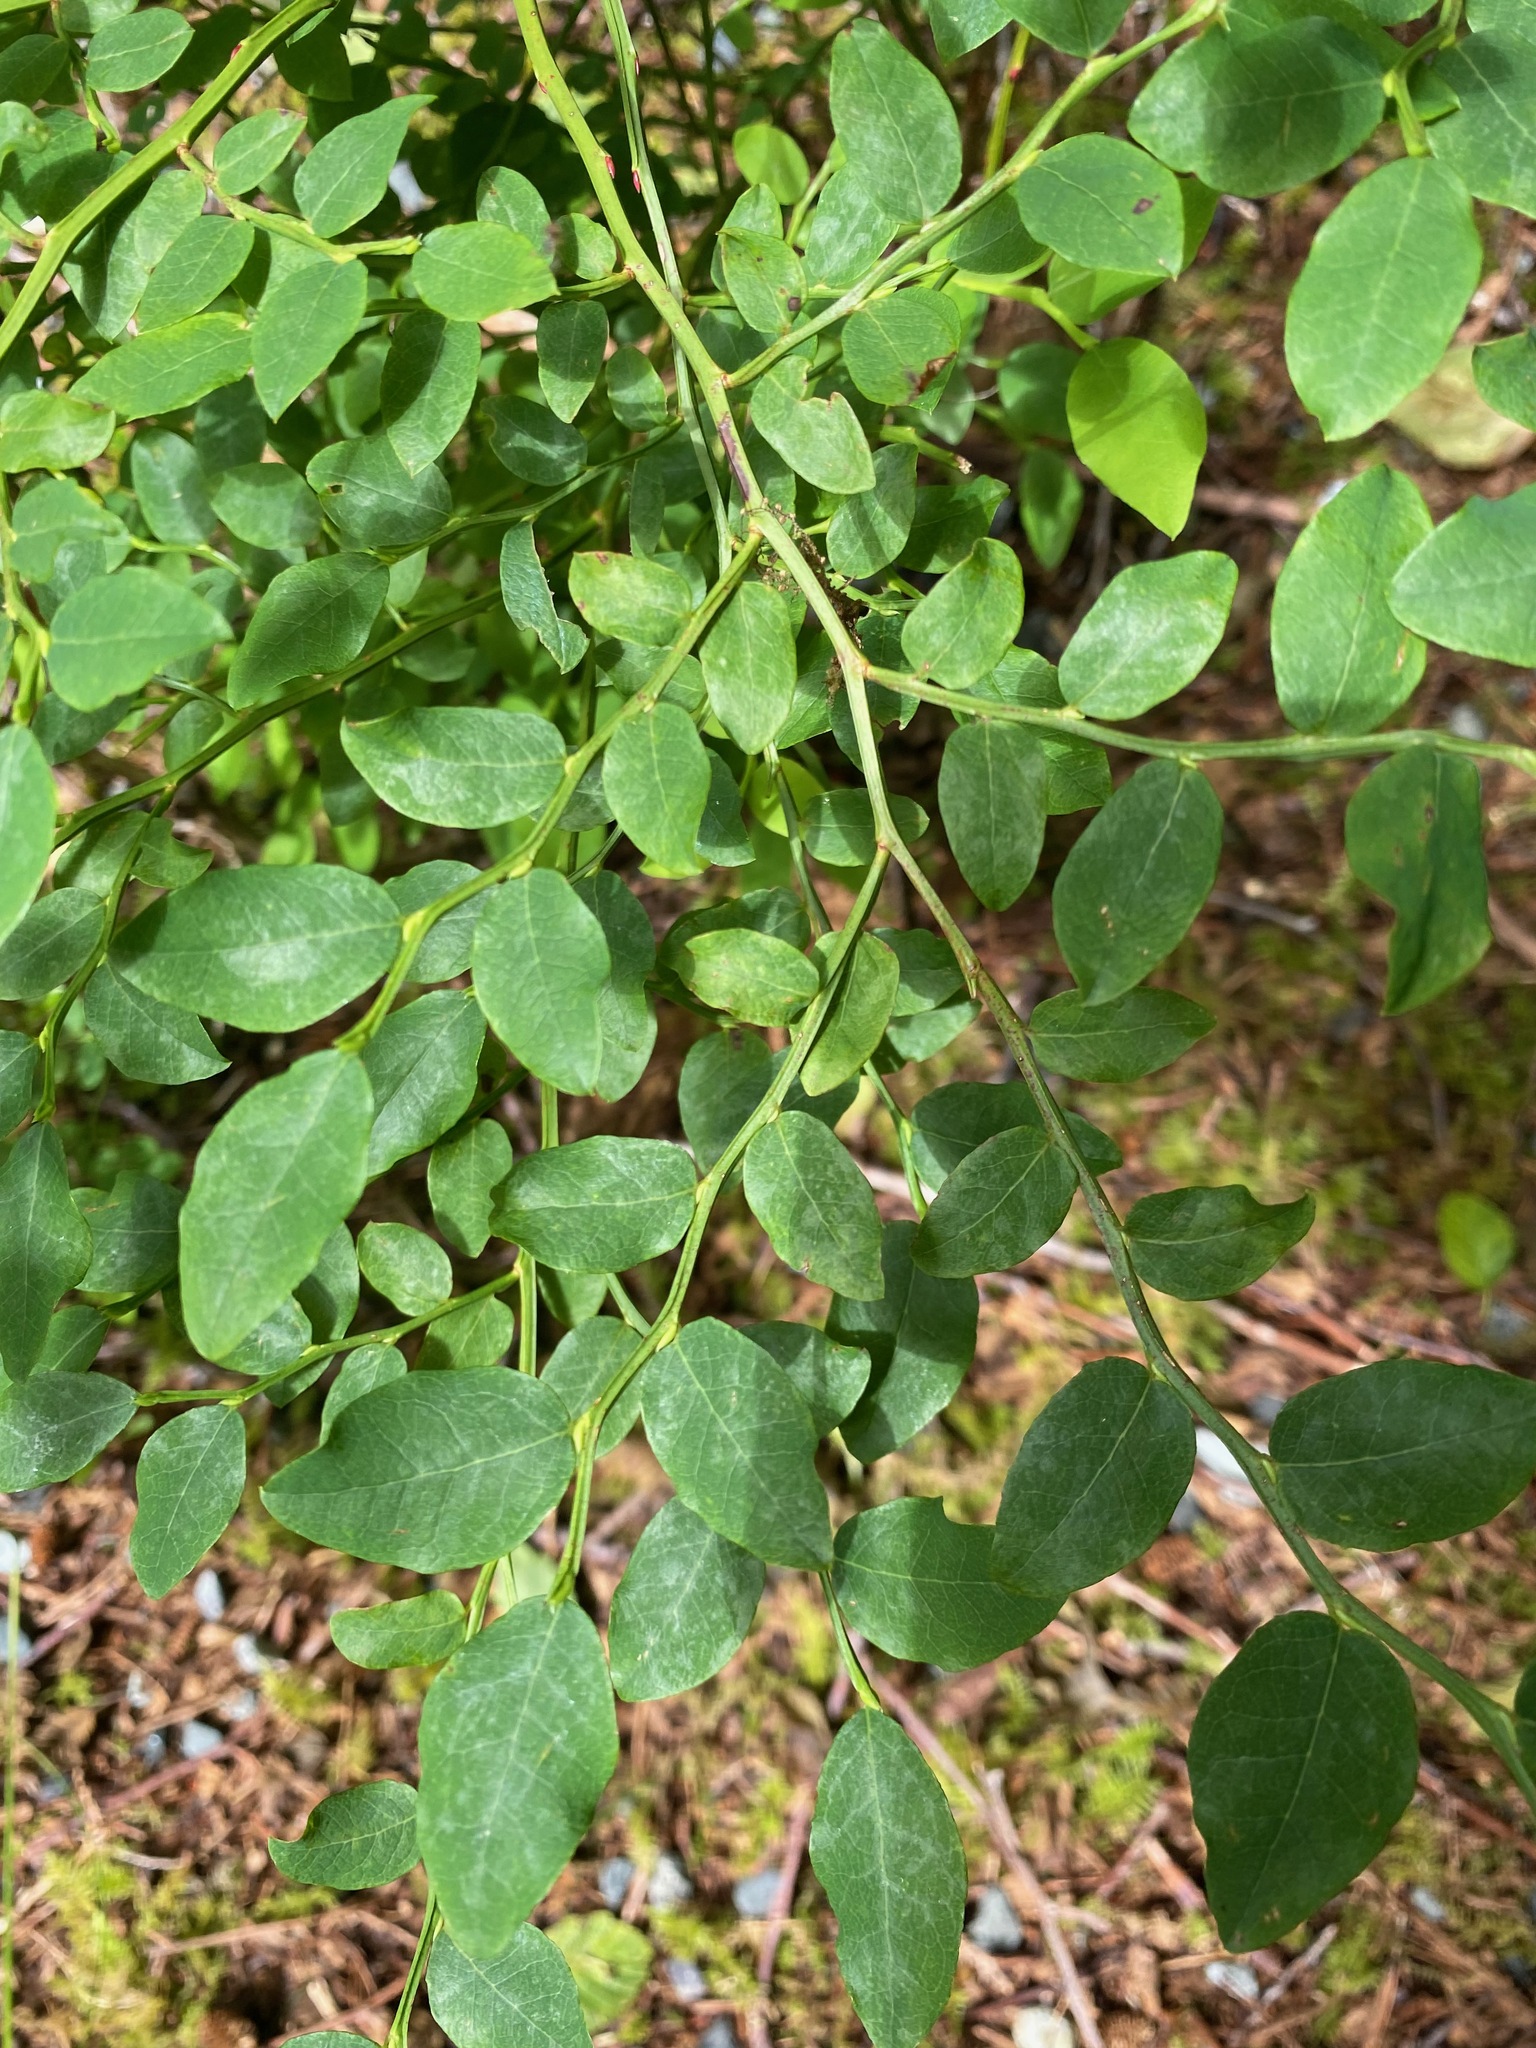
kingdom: Plantae
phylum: Tracheophyta
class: Magnoliopsida
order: Ericales
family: Ericaceae
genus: Vaccinium
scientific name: Vaccinium parvifolium
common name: Red-huckleberry
